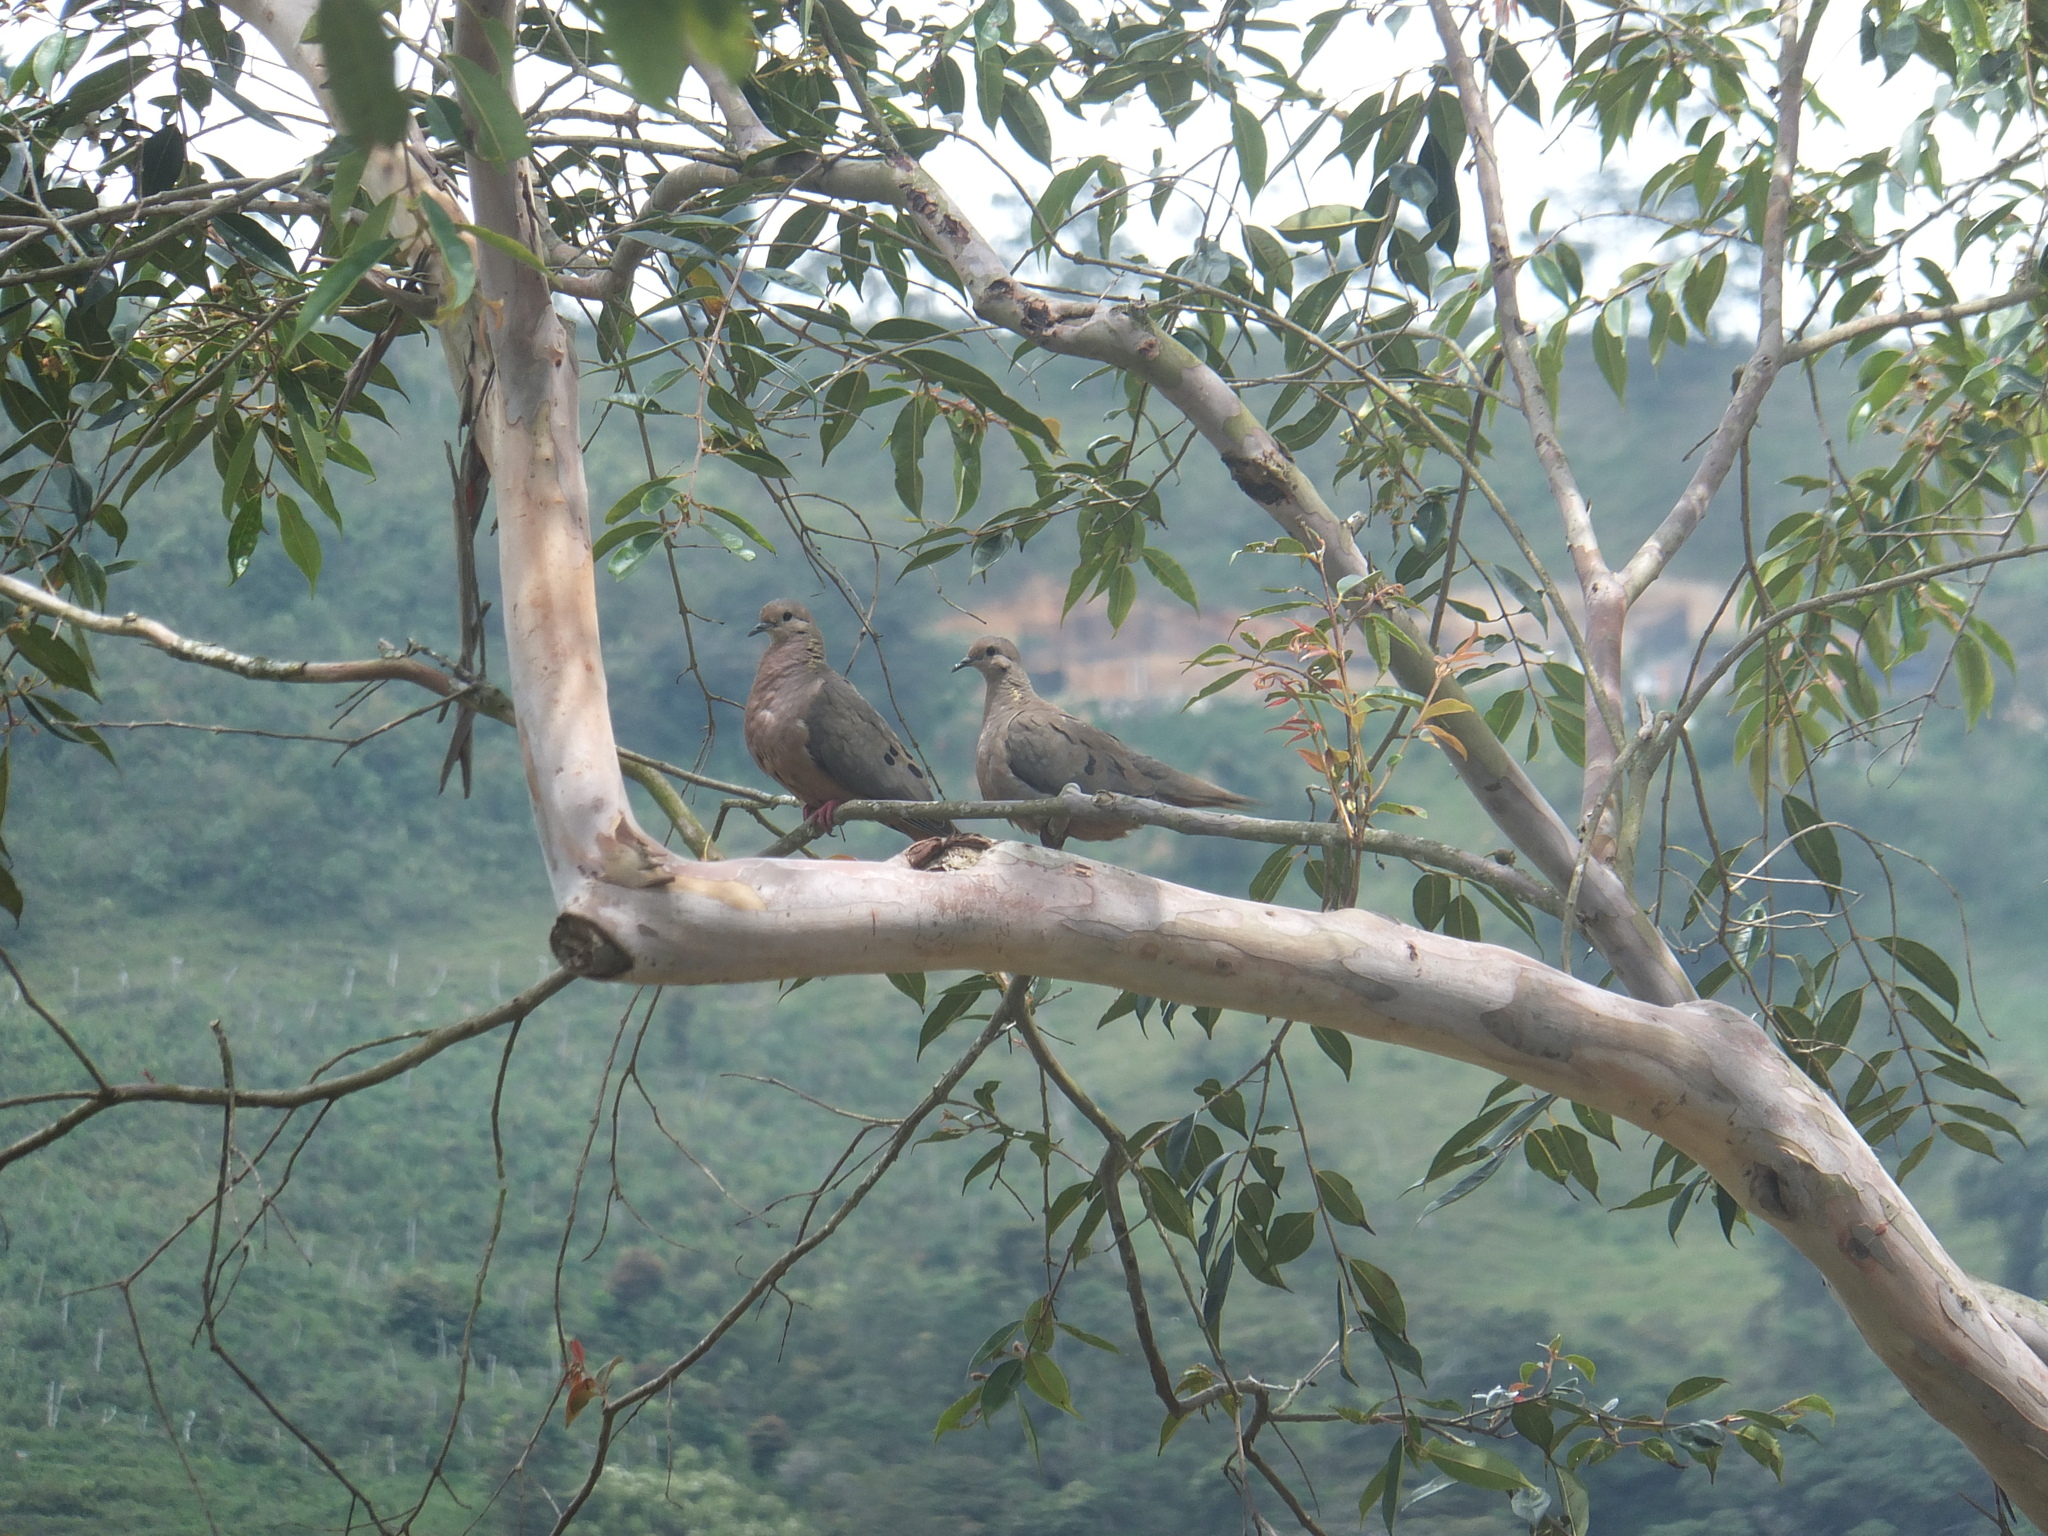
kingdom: Animalia
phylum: Chordata
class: Aves
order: Columbiformes
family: Columbidae
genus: Zenaida
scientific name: Zenaida auriculata
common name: Eared dove
